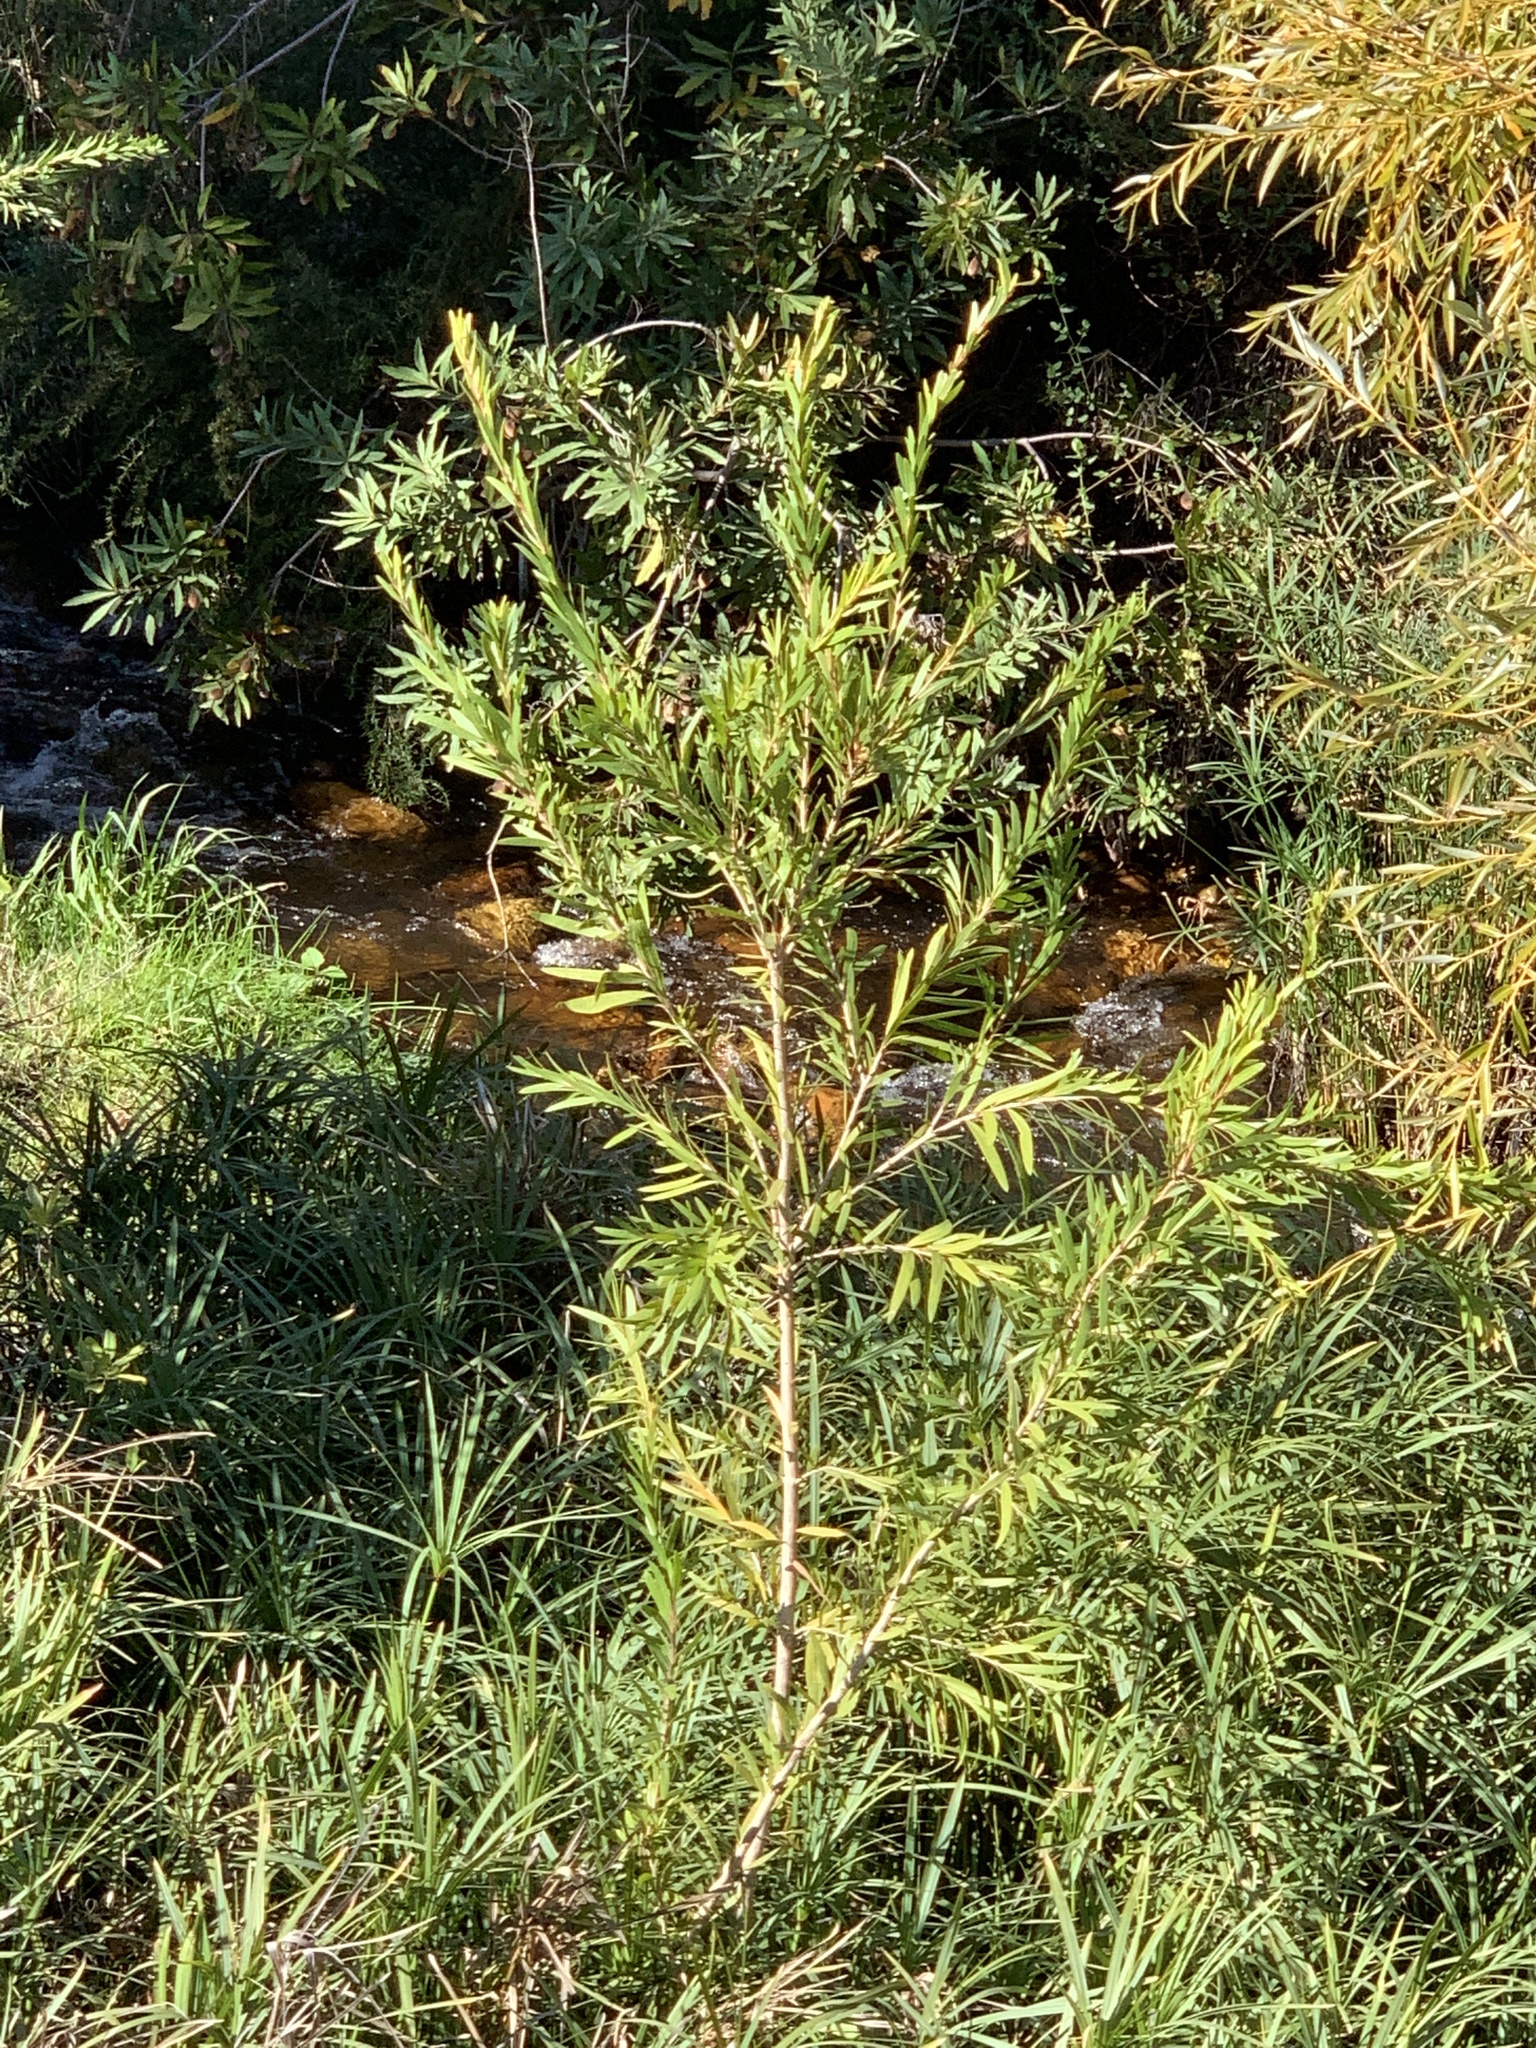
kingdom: Plantae
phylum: Tracheophyta
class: Magnoliopsida
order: Myrtales
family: Myrtaceae
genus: Callistemon
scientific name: Callistemon viminalis
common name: Drooping bottlebrush
